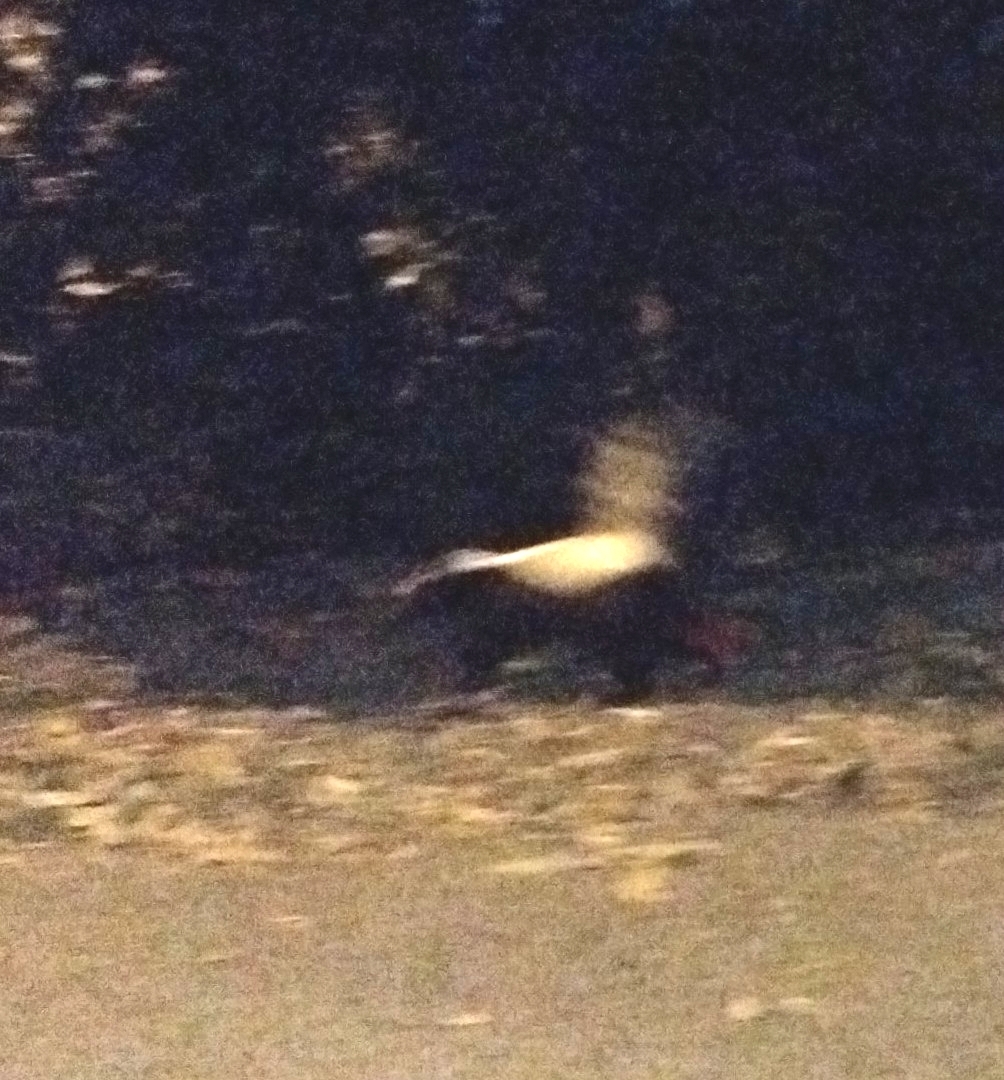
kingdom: Animalia
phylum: Chordata
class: Mammalia
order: Carnivora
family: Mephitidae
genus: Mephitis
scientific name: Mephitis mephitis
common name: Striped skunk
